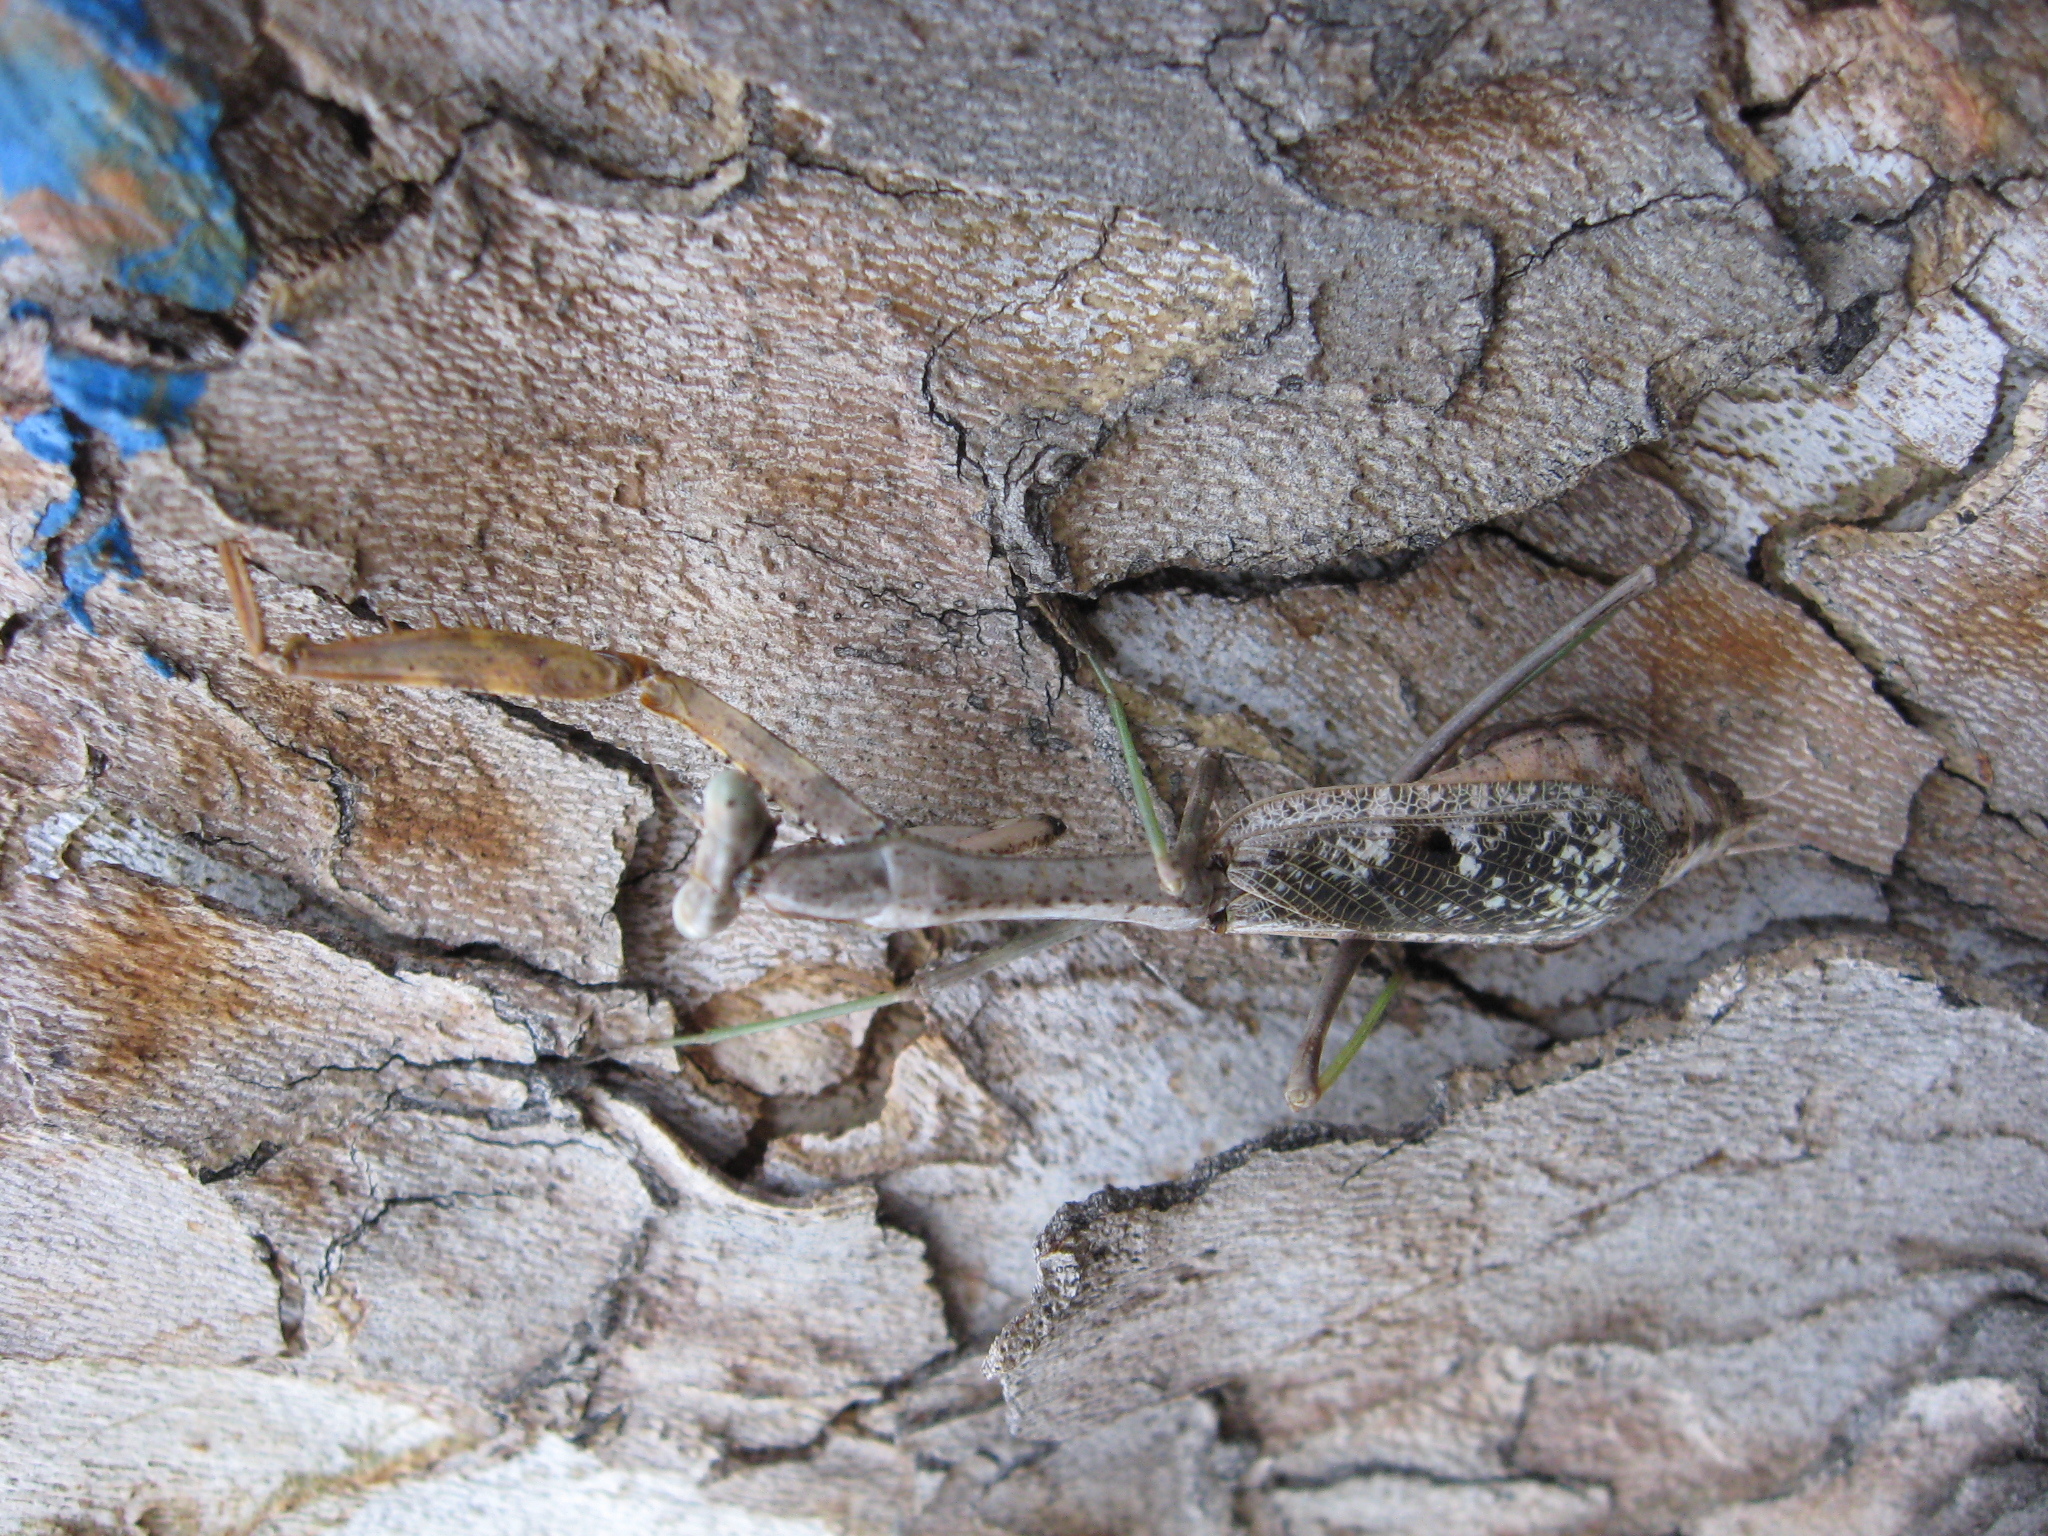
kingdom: Animalia
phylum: Arthropoda
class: Insecta
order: Mantodea
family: Mantidae
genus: Stagmomantis
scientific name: Stagmomantis carolina
